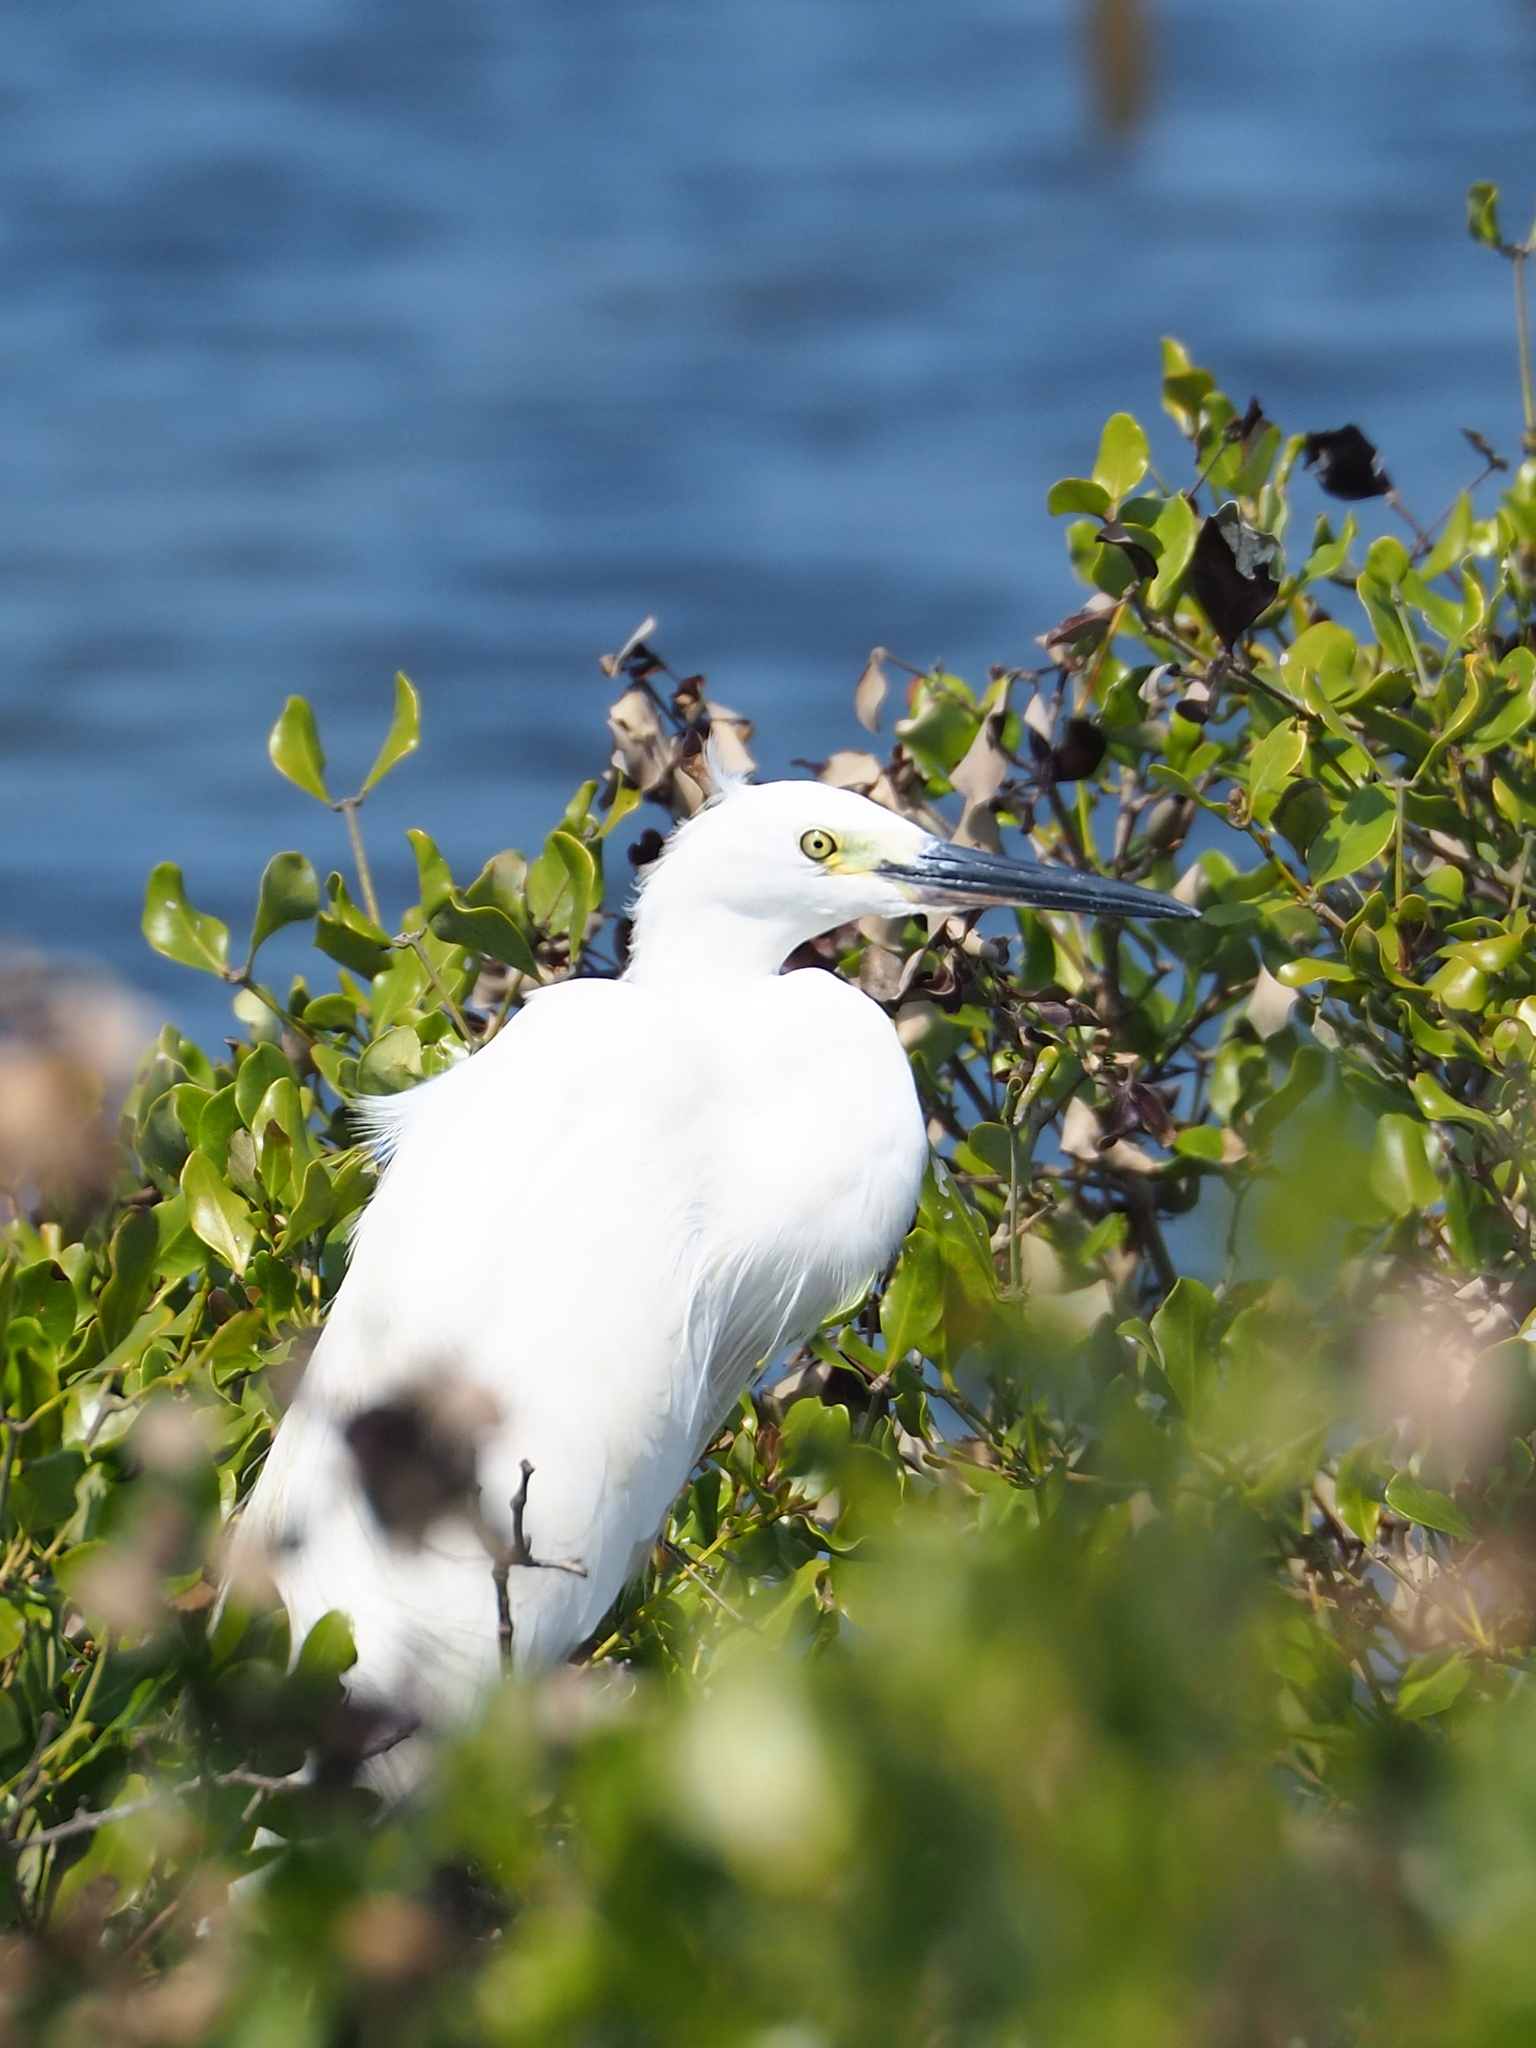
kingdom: Animalia
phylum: Chordata
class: Aves
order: Pelecaniformes
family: Ardeidae
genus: Egretta
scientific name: Egretta garzetta
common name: Little egret
